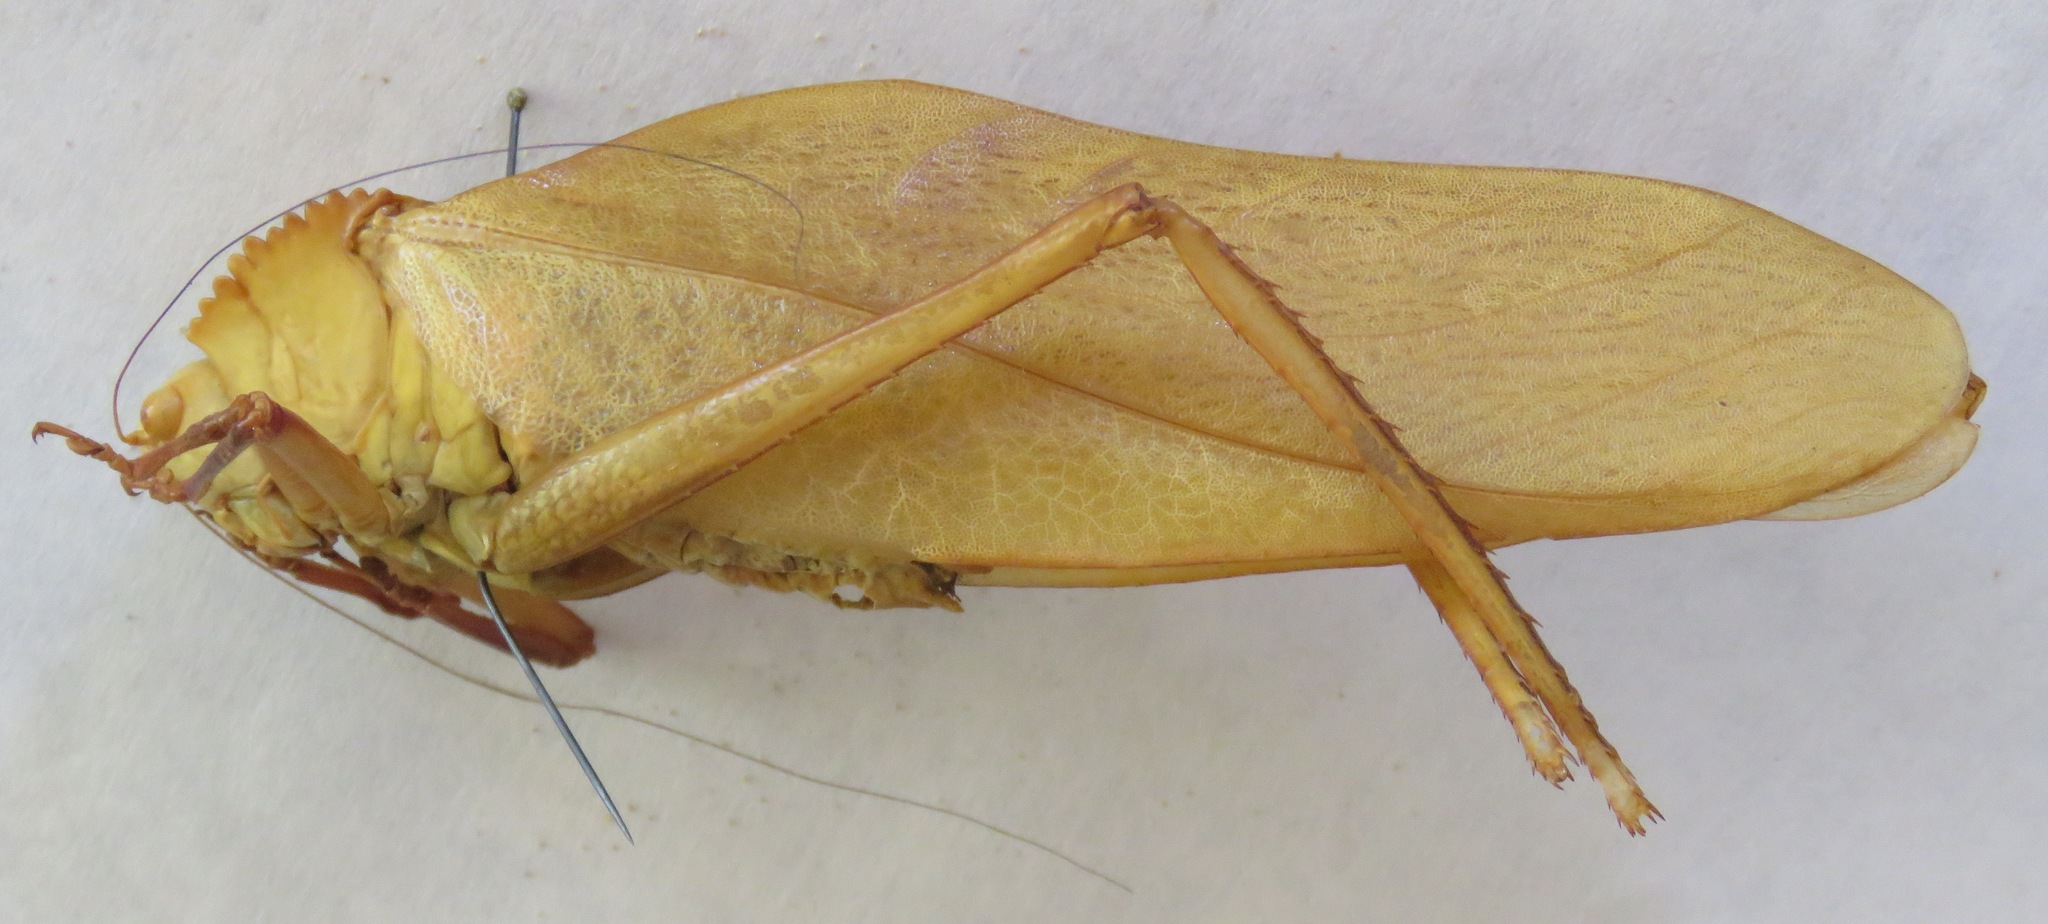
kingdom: Animalia
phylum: Arthropoda
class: Insecta
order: Orthoptera
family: Tettigoniidae
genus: Steirodon
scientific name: Steirodon stalii
